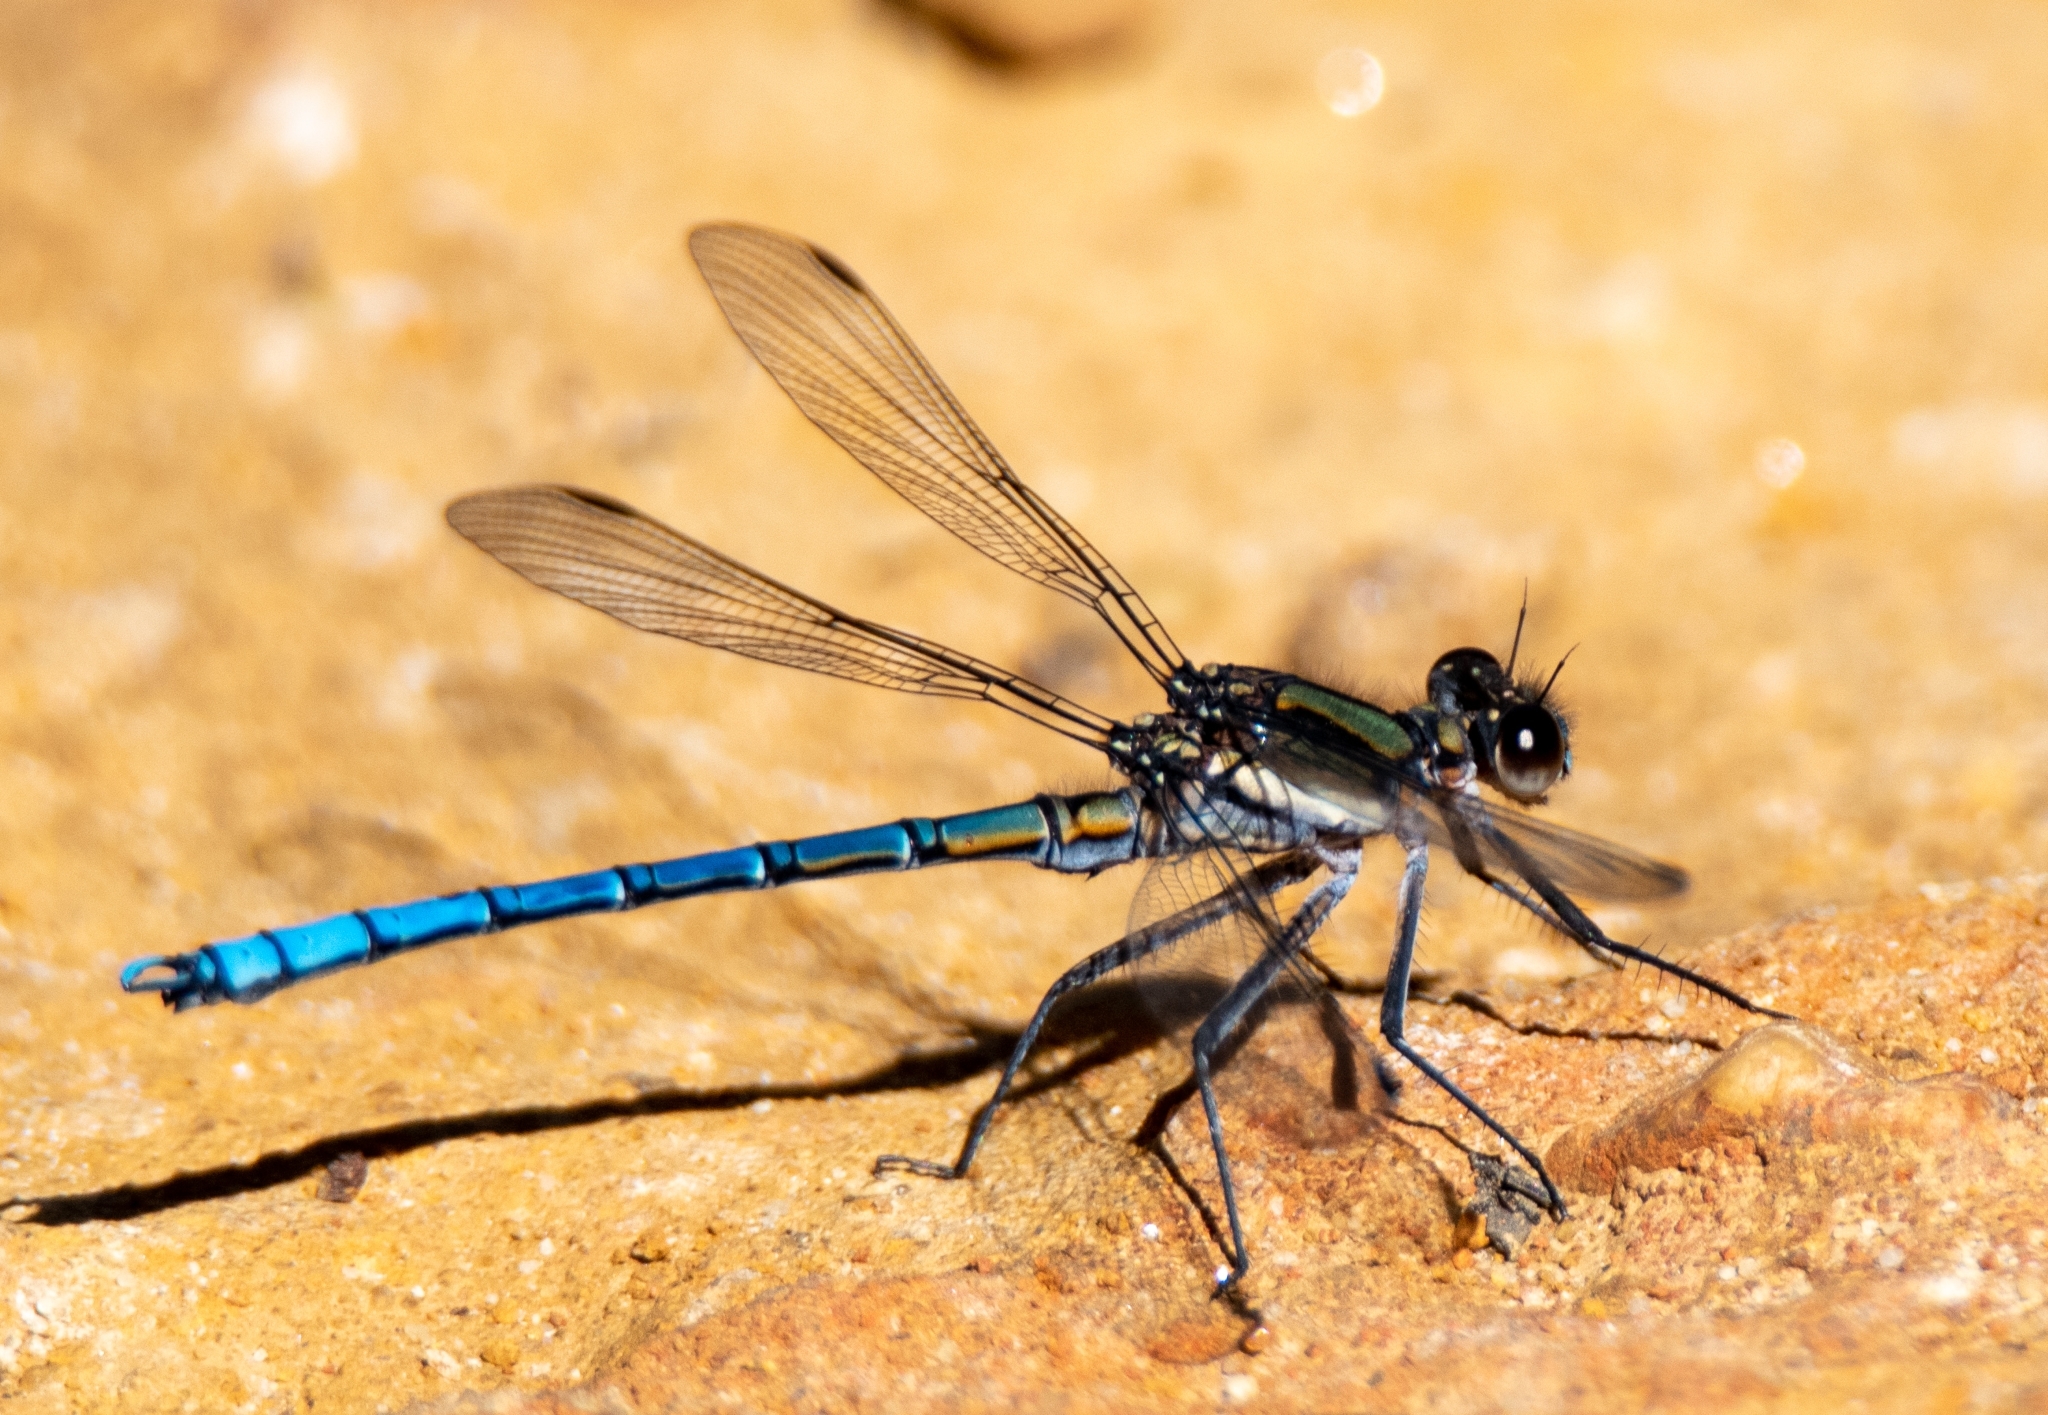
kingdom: Animalia
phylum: Arthropoda
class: Insecta
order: Odonata
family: Lestoideidae
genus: Diphlebia
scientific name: Diphlebia lestoides
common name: Whitewater rockmaster
